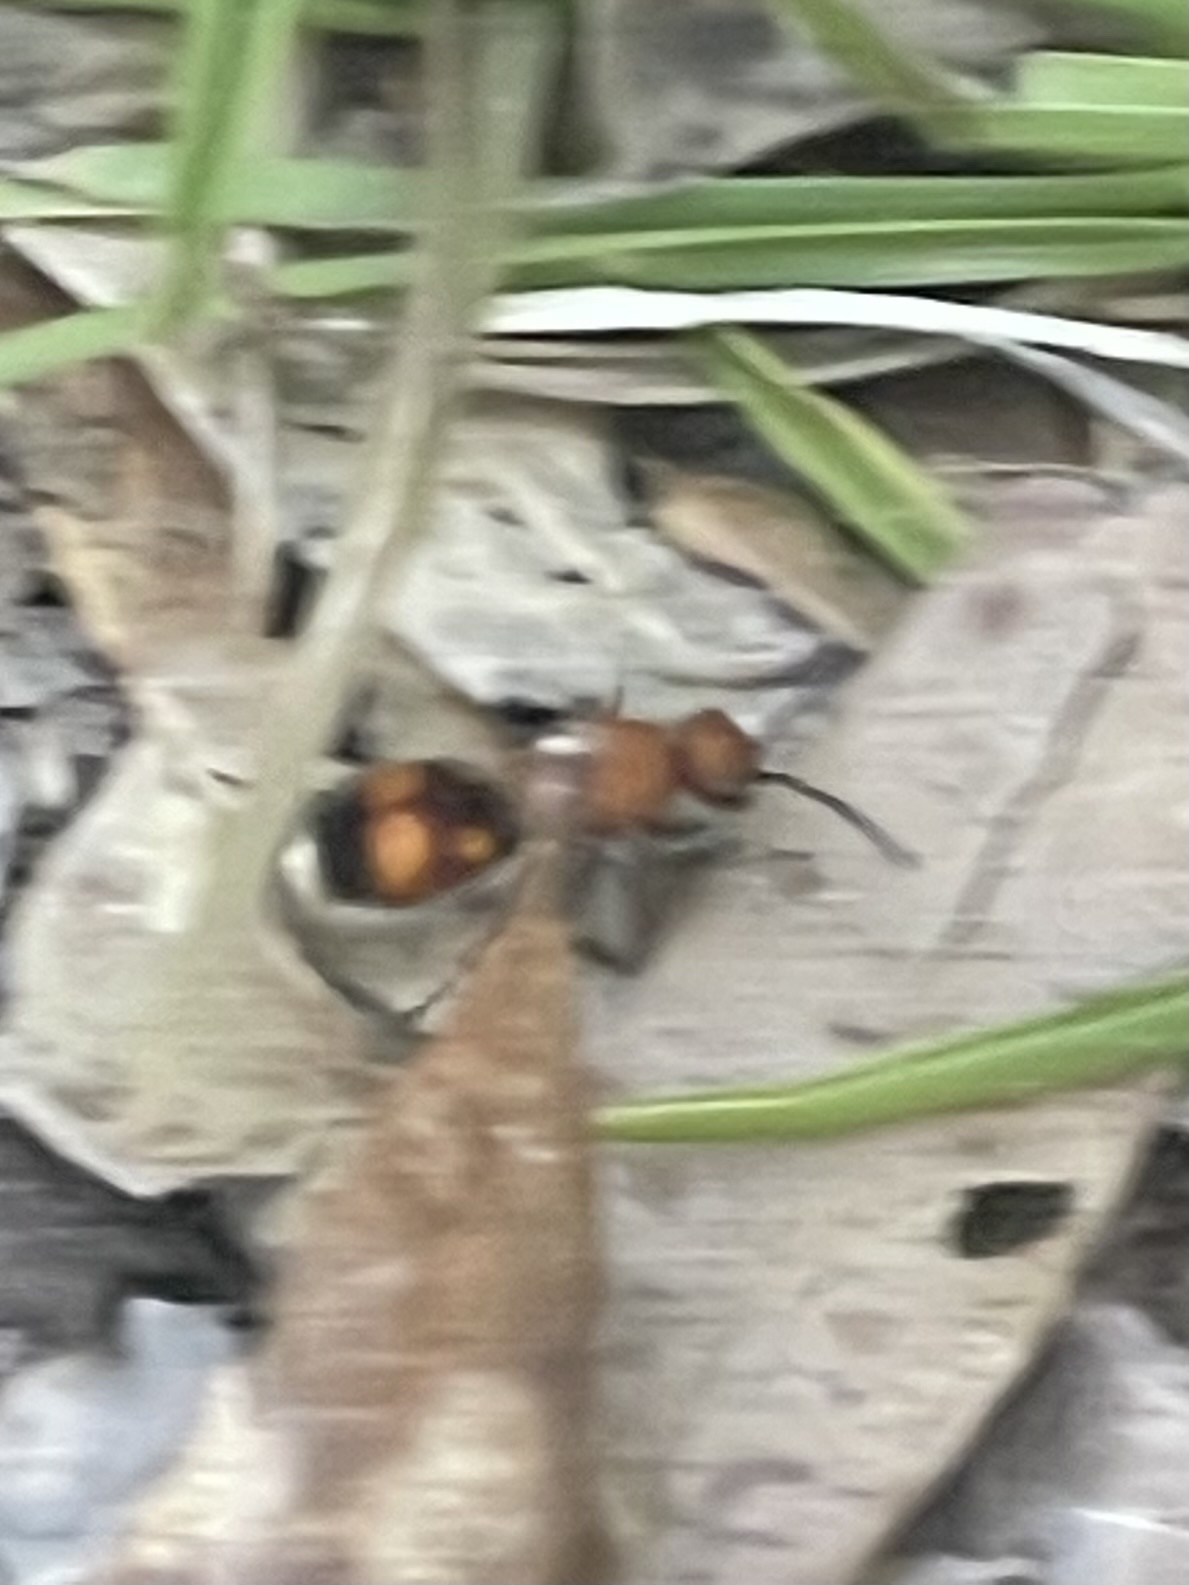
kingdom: Animalia
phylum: Arthropoda
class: Insecta
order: Hymenoptera
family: Mutillidae
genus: Dasymutilla
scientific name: Dasymutilla
